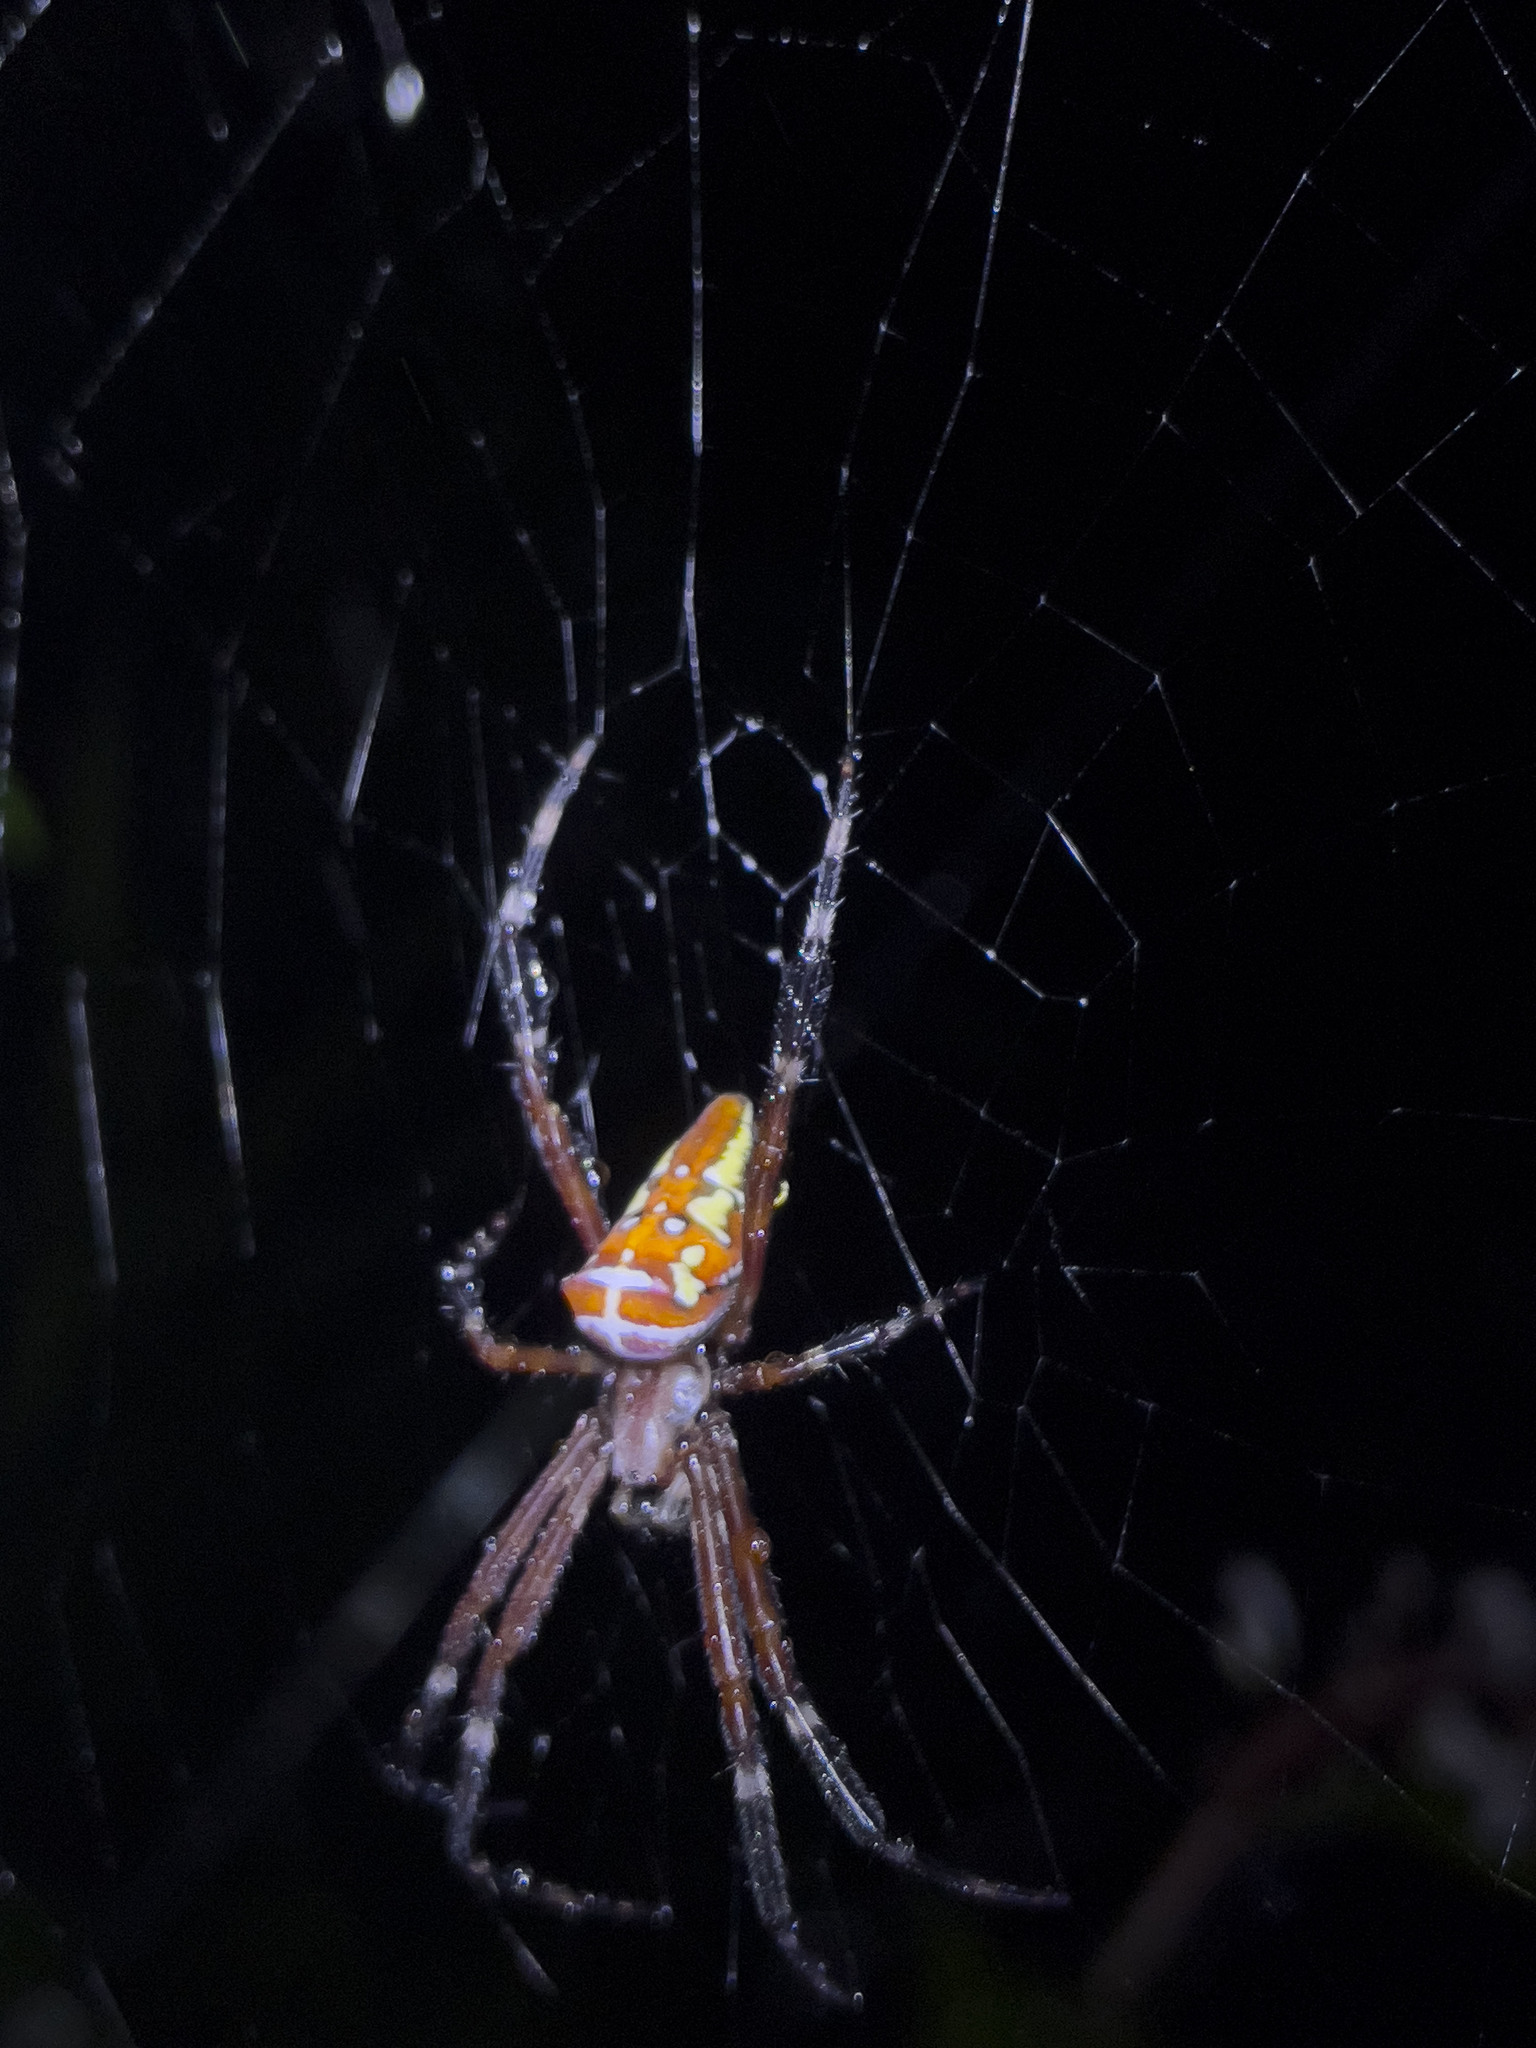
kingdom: Animalia
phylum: Arthropoda
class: Arachnida
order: Araneae
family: Araneidae
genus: Argiope
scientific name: Argiope ocula
